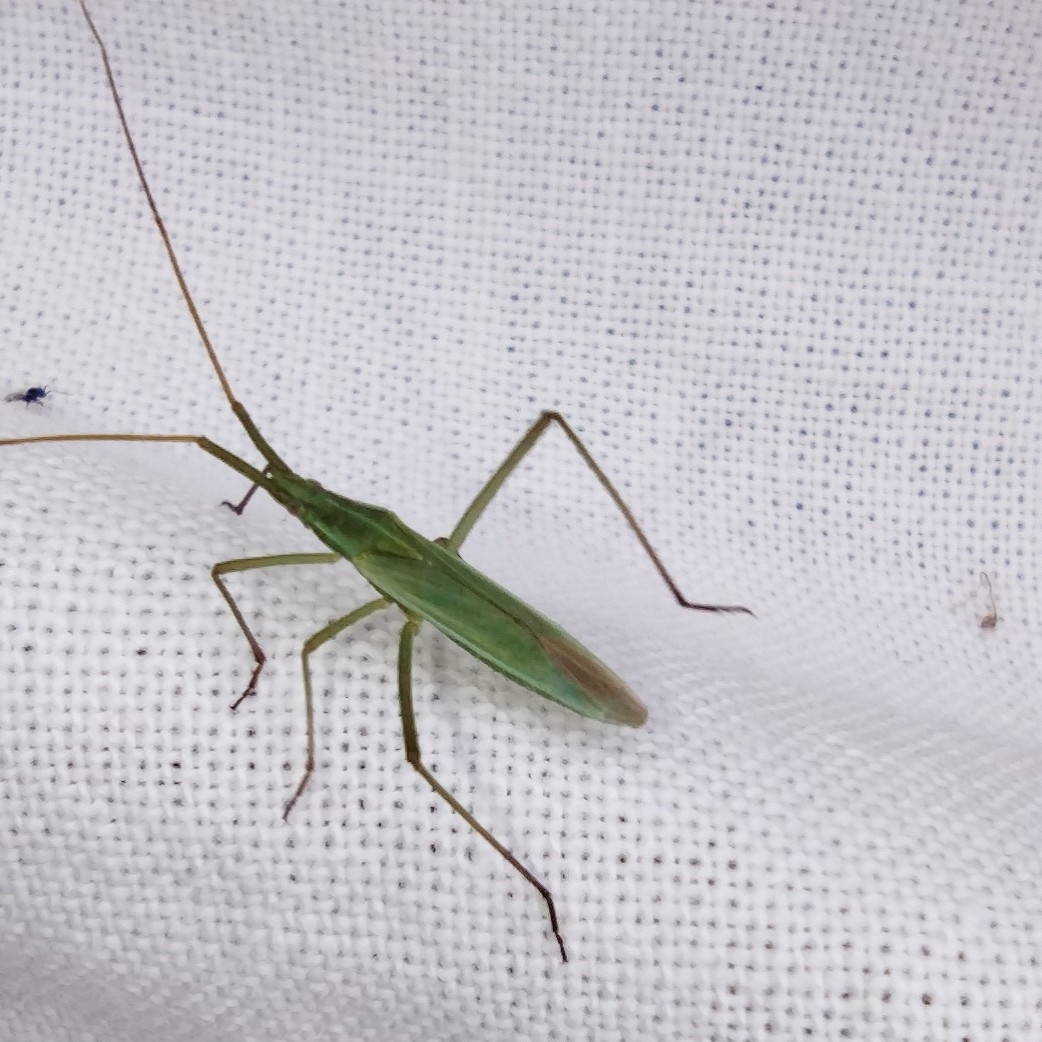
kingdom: Animalia
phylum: Arthropoda
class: Insecta
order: Hemiptera
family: Miridae
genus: Megaloceroea
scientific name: Megaloceroea recticornis
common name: Plant bug
